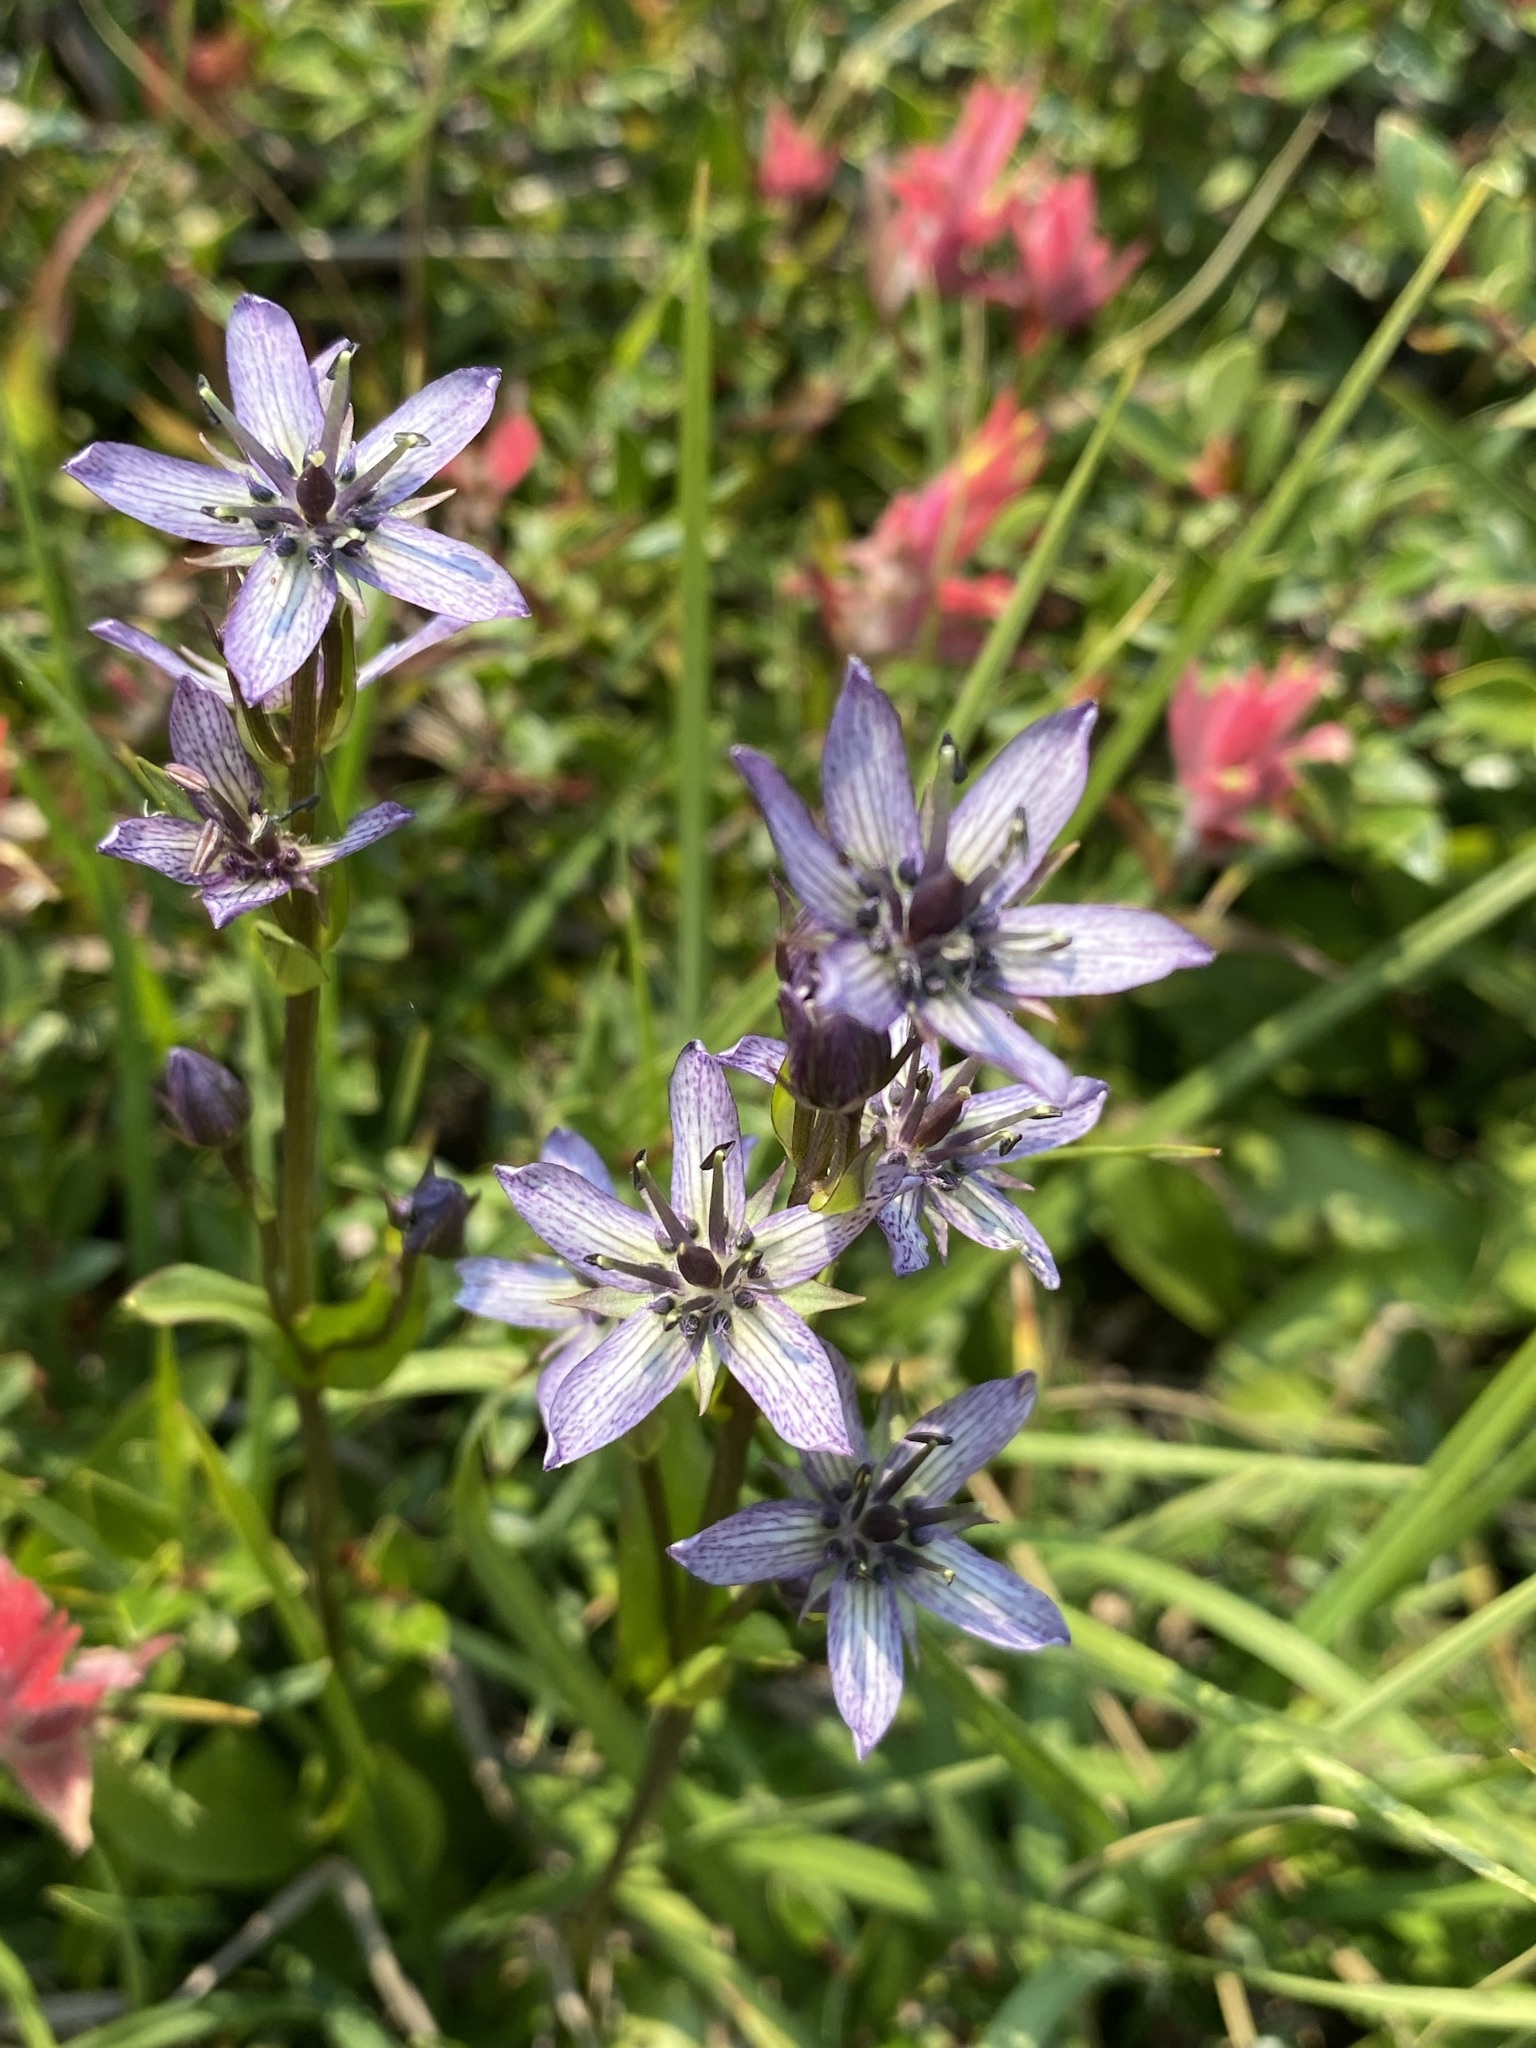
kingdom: Plantae
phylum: Tracheophyta
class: Magnoliopsida
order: Gentianales
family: Gentianaceae
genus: Swertia
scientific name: Swertia perennis
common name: Alpine bog swertia
